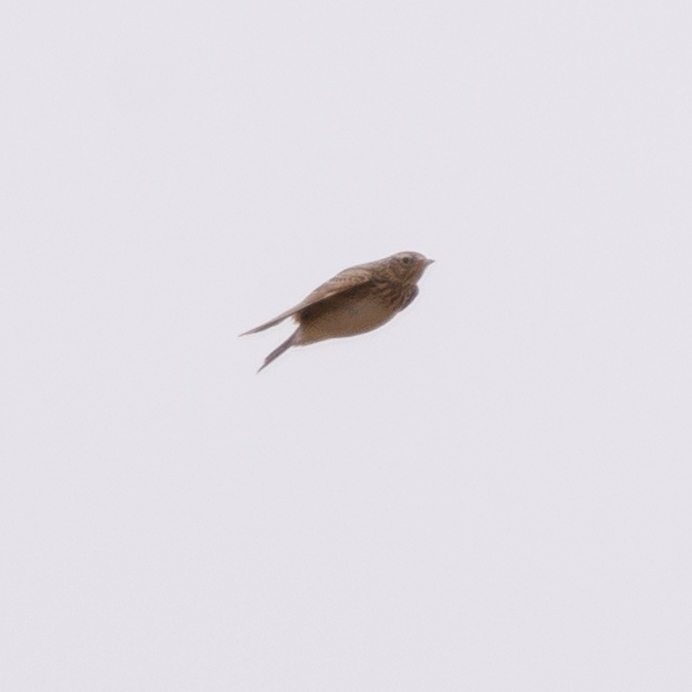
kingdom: Animalia
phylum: Chordata
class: Aves
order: Passeriformes
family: Alaudidae
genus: Alauda
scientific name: Alauda arvensis
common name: Eurasian skylark
